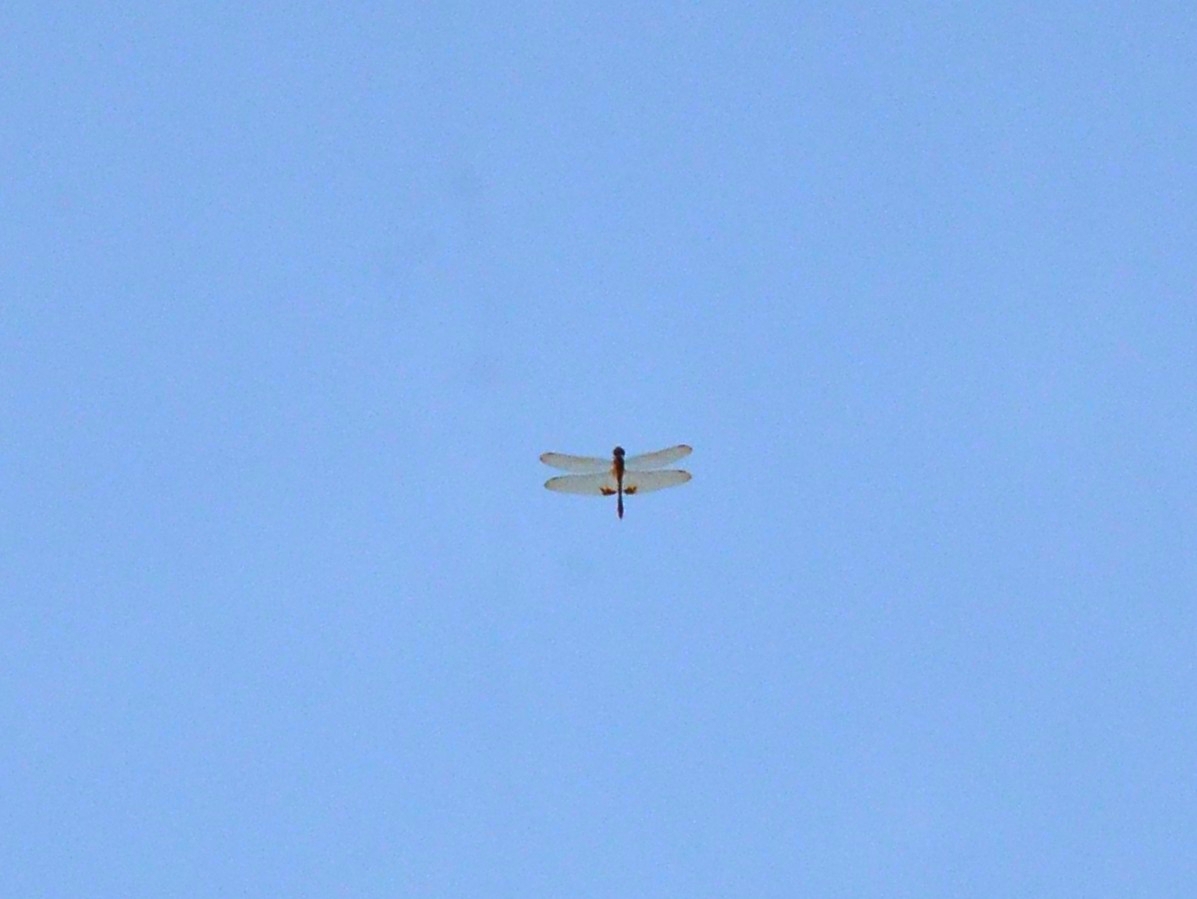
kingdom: Animalia
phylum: Arthropoda
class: Insecta
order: Odonata
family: Libellulidae
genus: Hydrobasileus
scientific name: Hydrobasileus croceus
